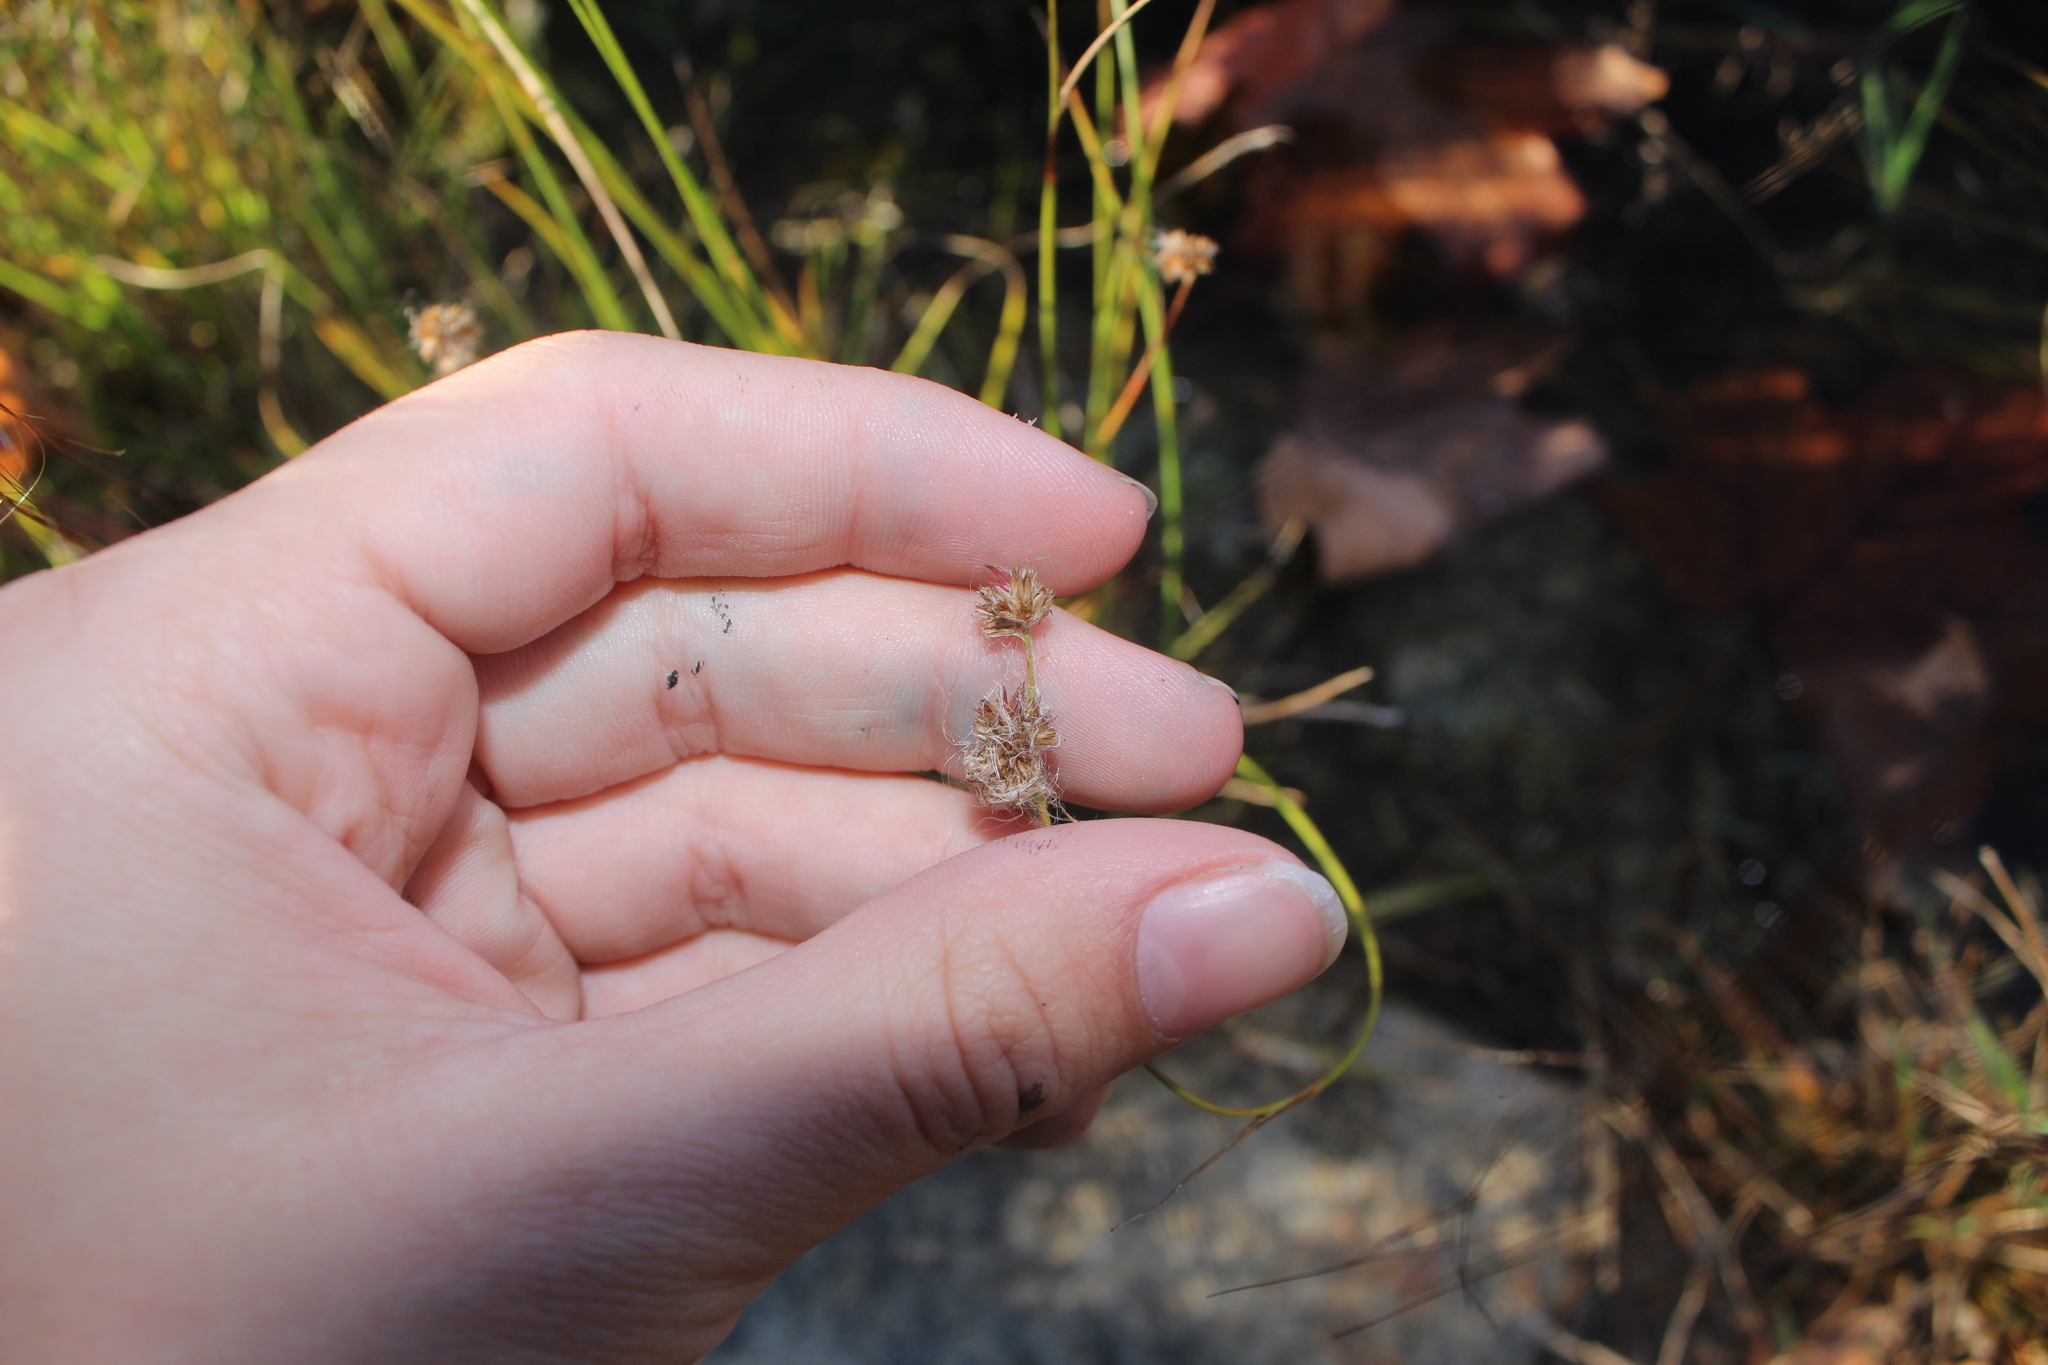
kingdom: Plantae
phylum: Tracheophyta
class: Liliopsida
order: Poales
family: Cyperaceae
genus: Eleocharis
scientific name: Eleocharis obtusa
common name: Blunt spikerush
